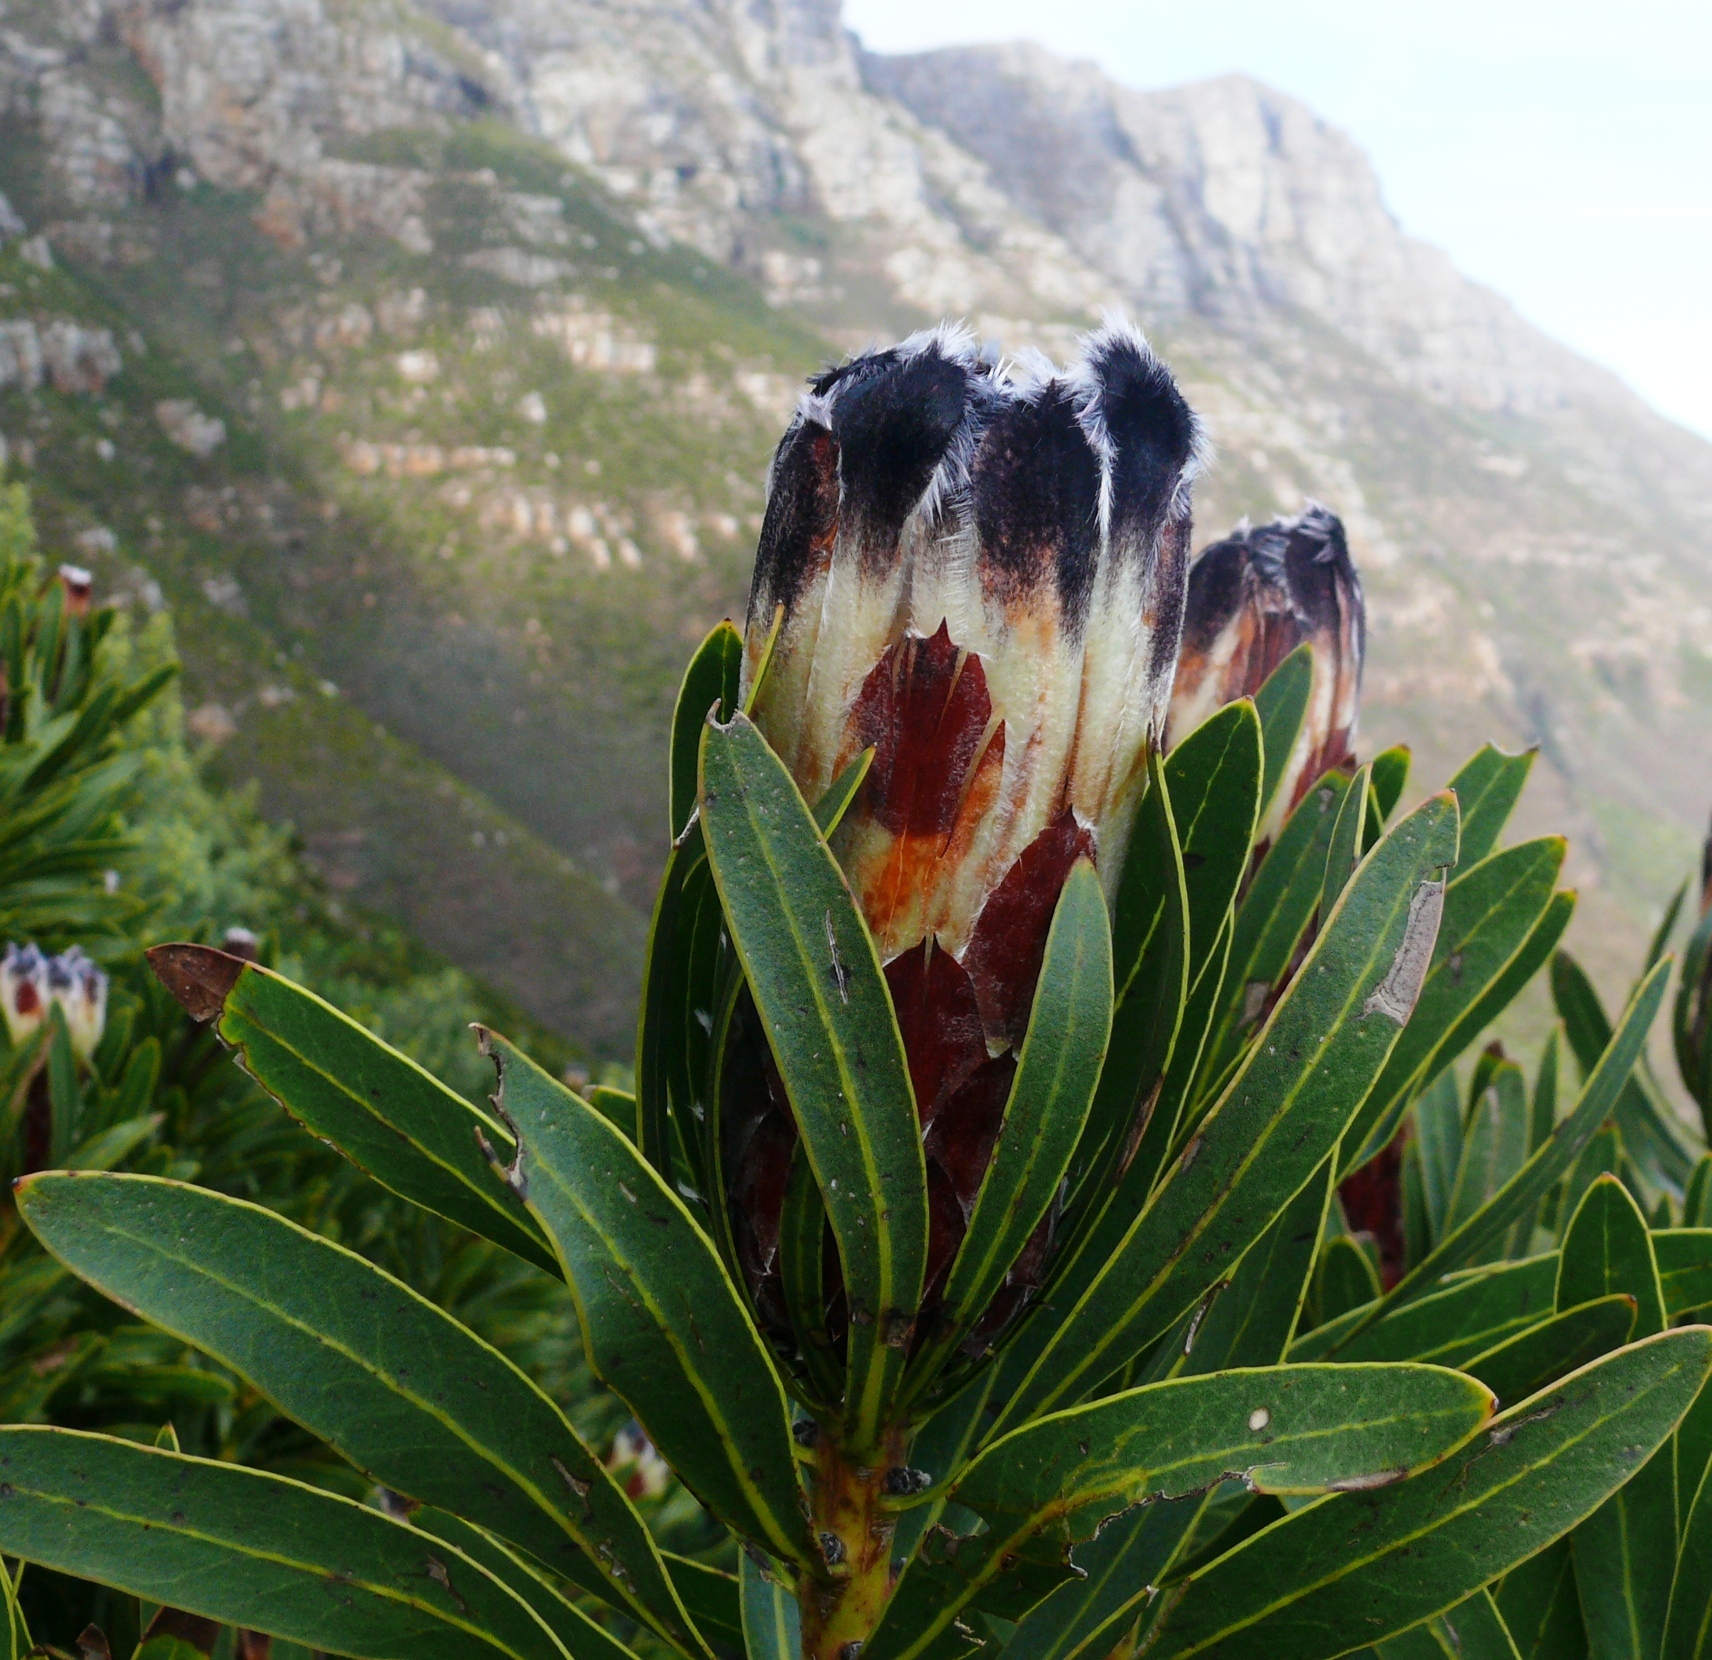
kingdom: Plantae
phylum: Tracheophyta
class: Magnoliopsida
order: Proteales
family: Proteaceae
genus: Protea
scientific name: Protea lepidocarpodendron
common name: Black-bearded protea
